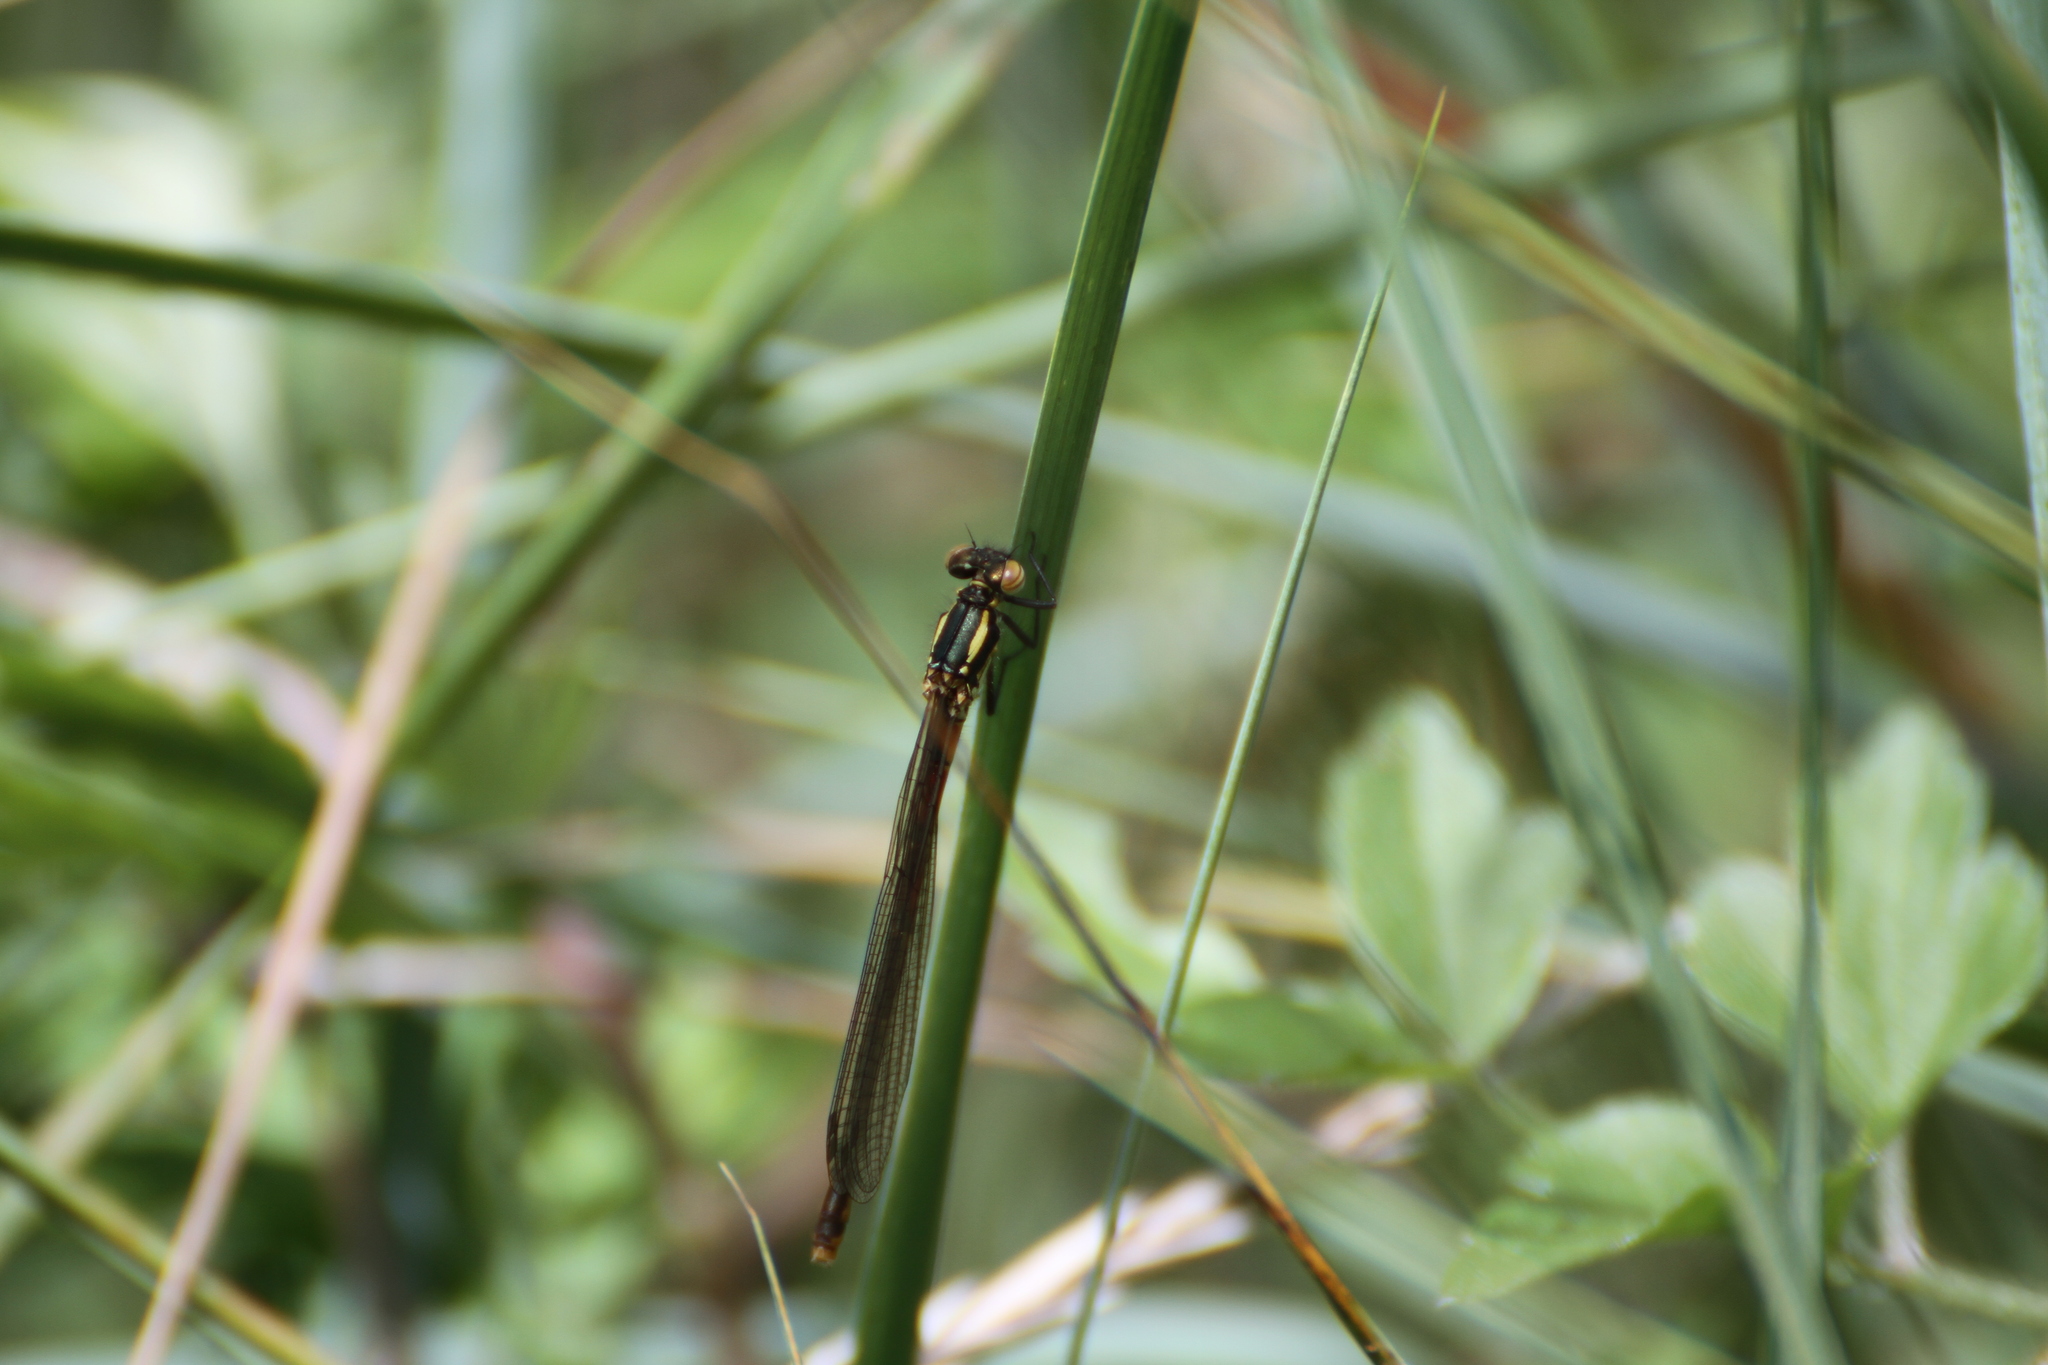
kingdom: Animalia
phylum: Arthropoda
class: Insecta
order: Odonata
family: Coenagrionidae
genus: Pyrrhosoma
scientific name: Pyrrhosoma nymphula
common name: Large red damsel
